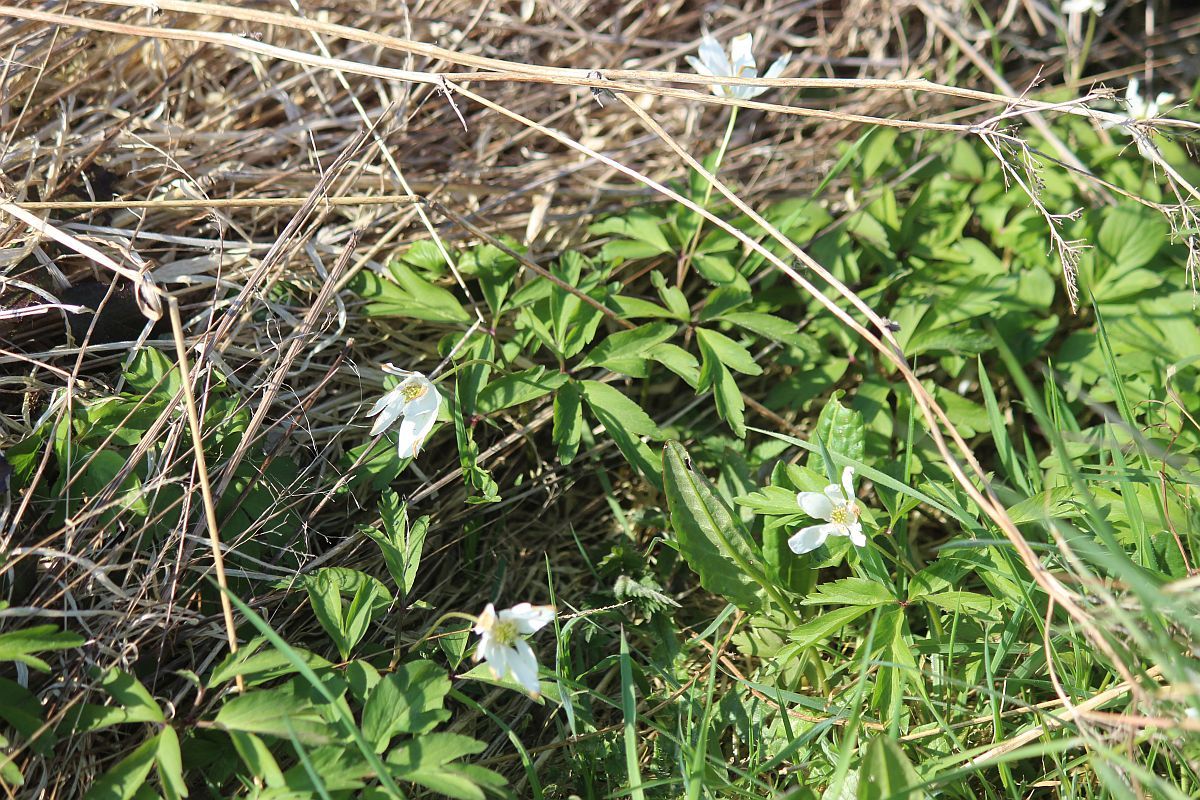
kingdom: Plantae
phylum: Tracheophyta
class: Magnoliopsida
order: Ranunculales
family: Ranunculaceae
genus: Anemone
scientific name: Anemone nemorosa
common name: Wood anemone
